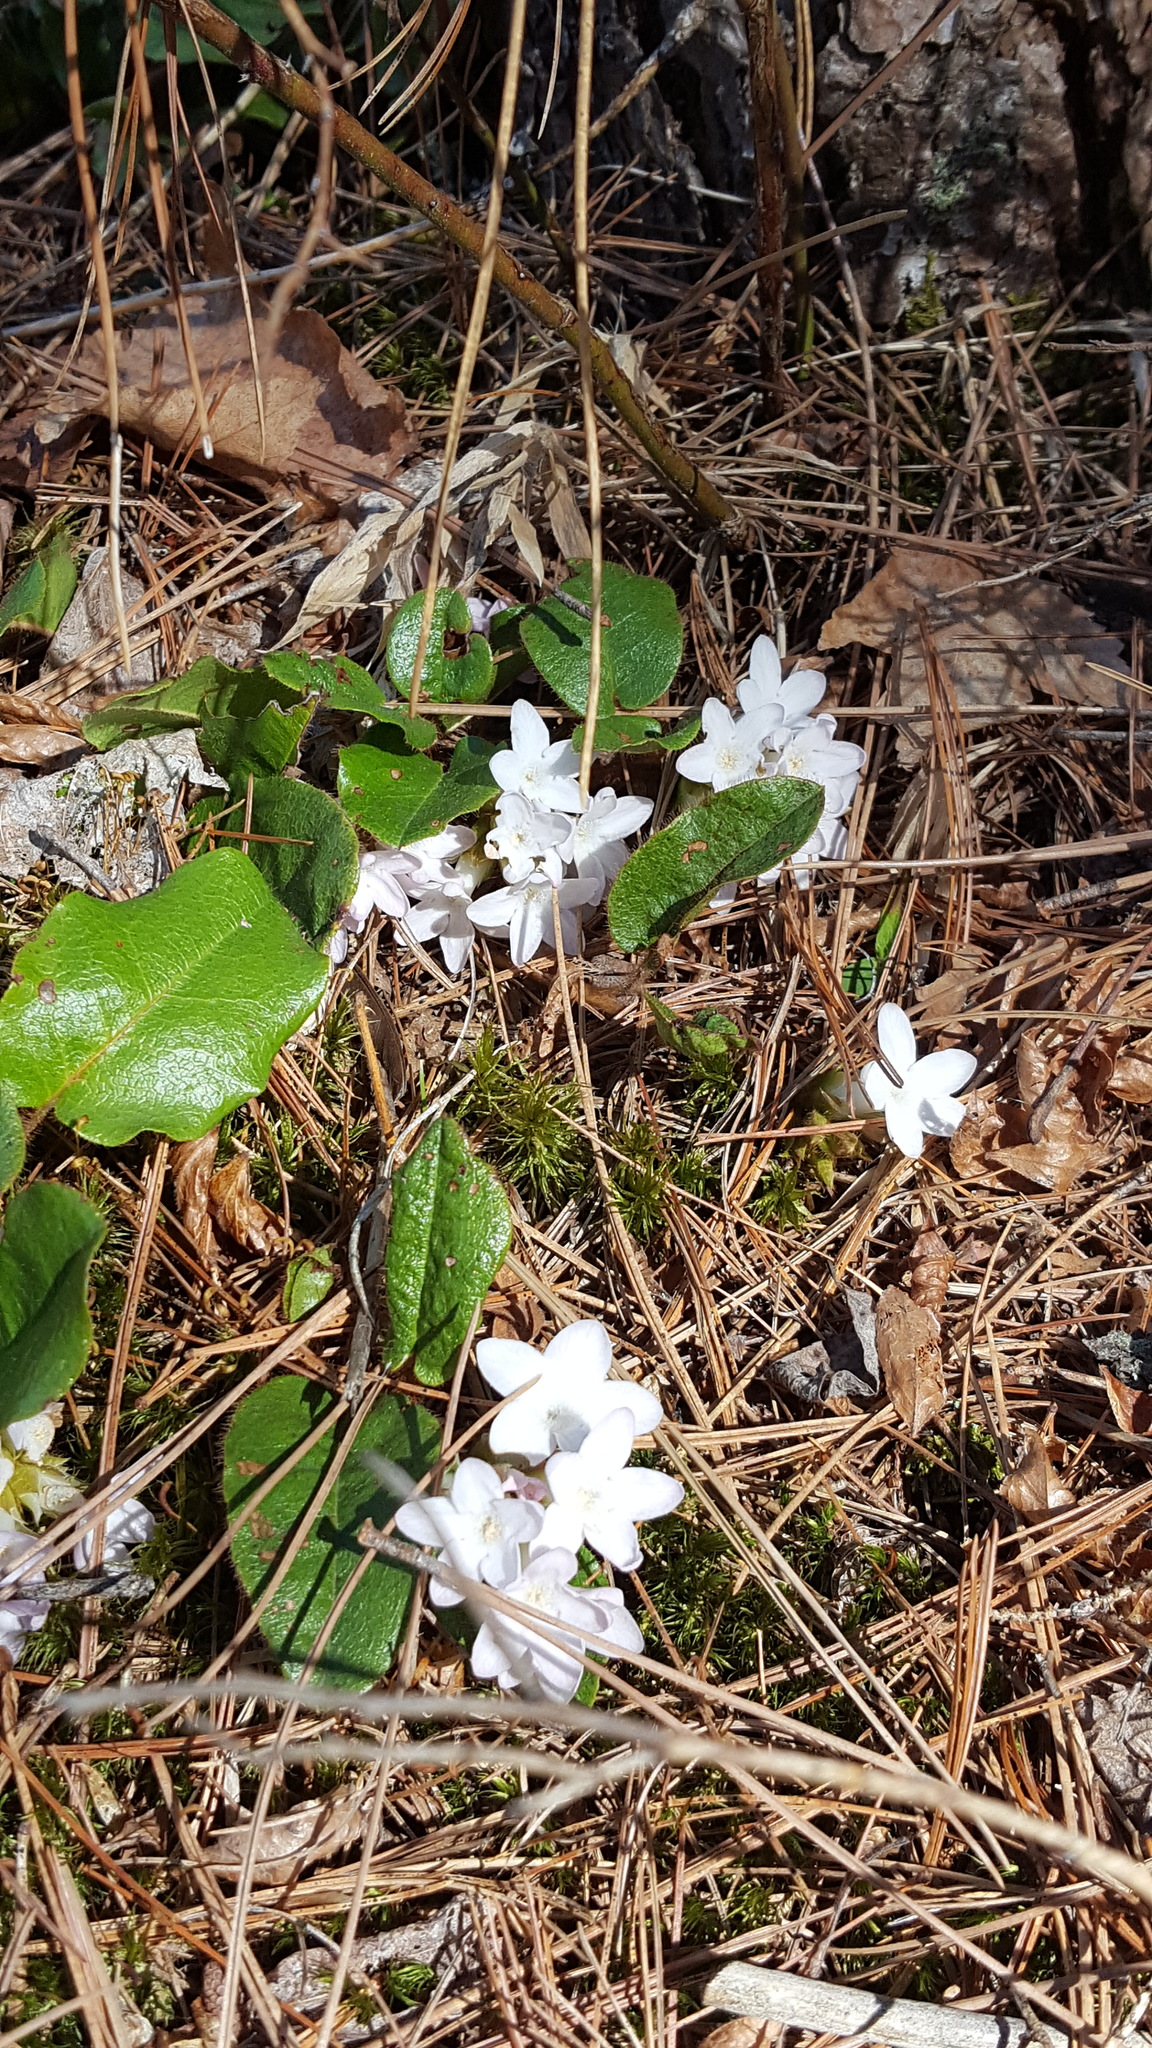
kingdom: Plantae
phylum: Tracheophyta
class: Magnoliopsida
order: Ericales
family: Ericaceae
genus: Epigaea
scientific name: Epigaea repens
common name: Gravelroot
